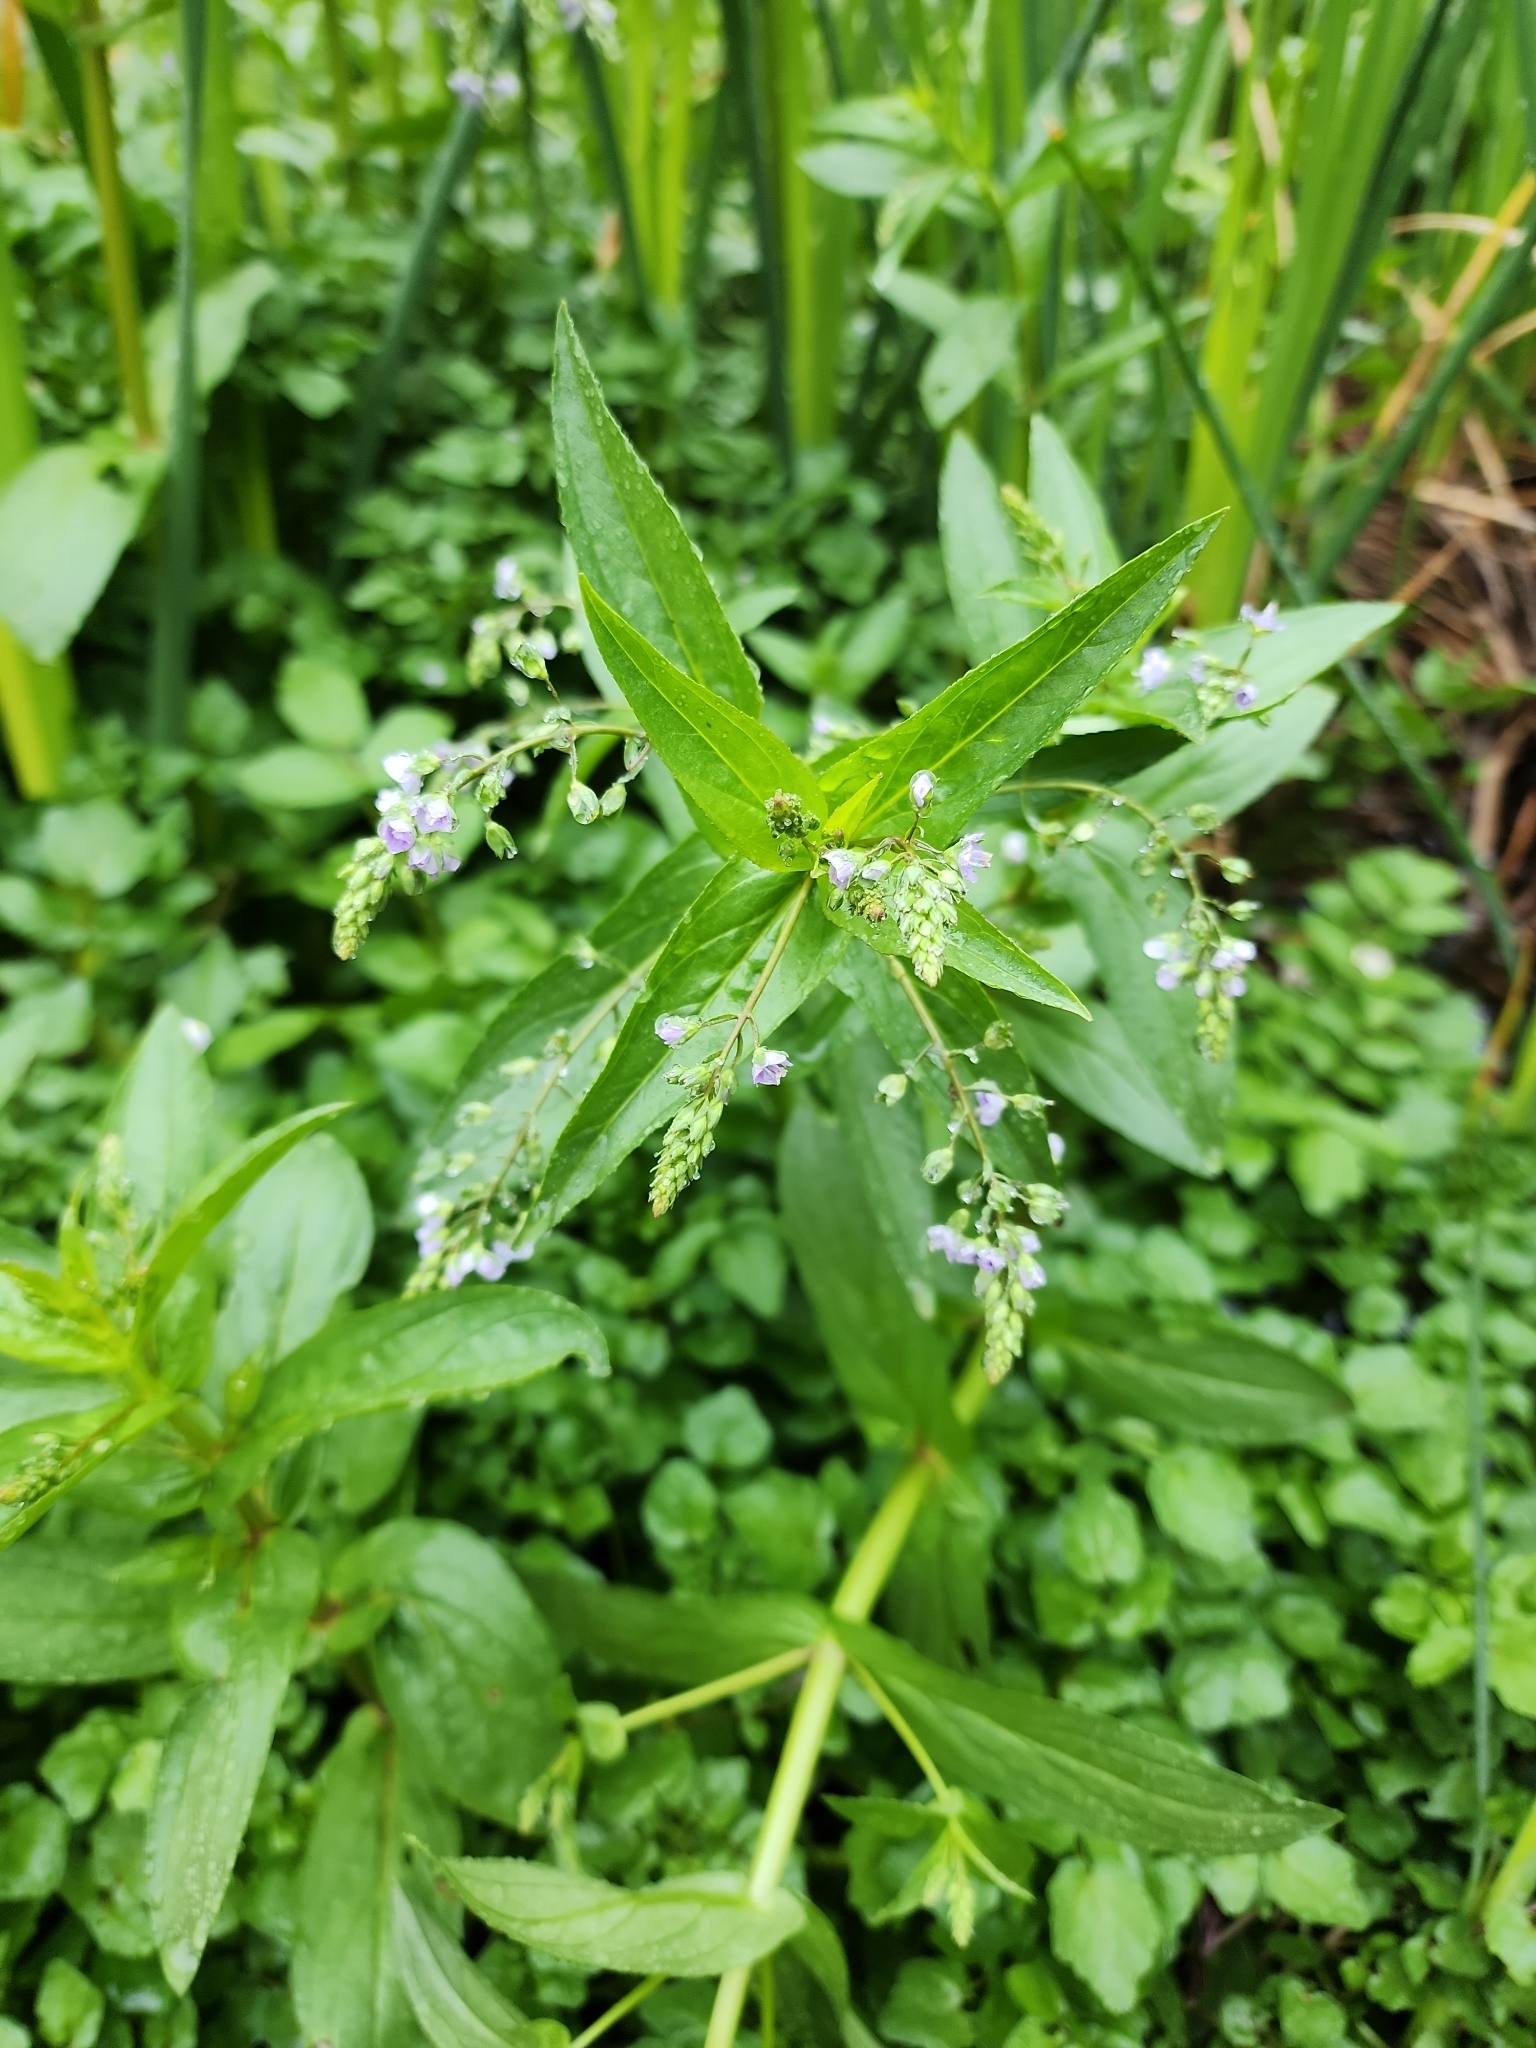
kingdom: Plantae
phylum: Tracheophyta
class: Magnoliopsida
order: Lamiales
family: Plantaginaceae
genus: Veronica
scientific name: Veronica anagallis-aquatica
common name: Water speedwell
